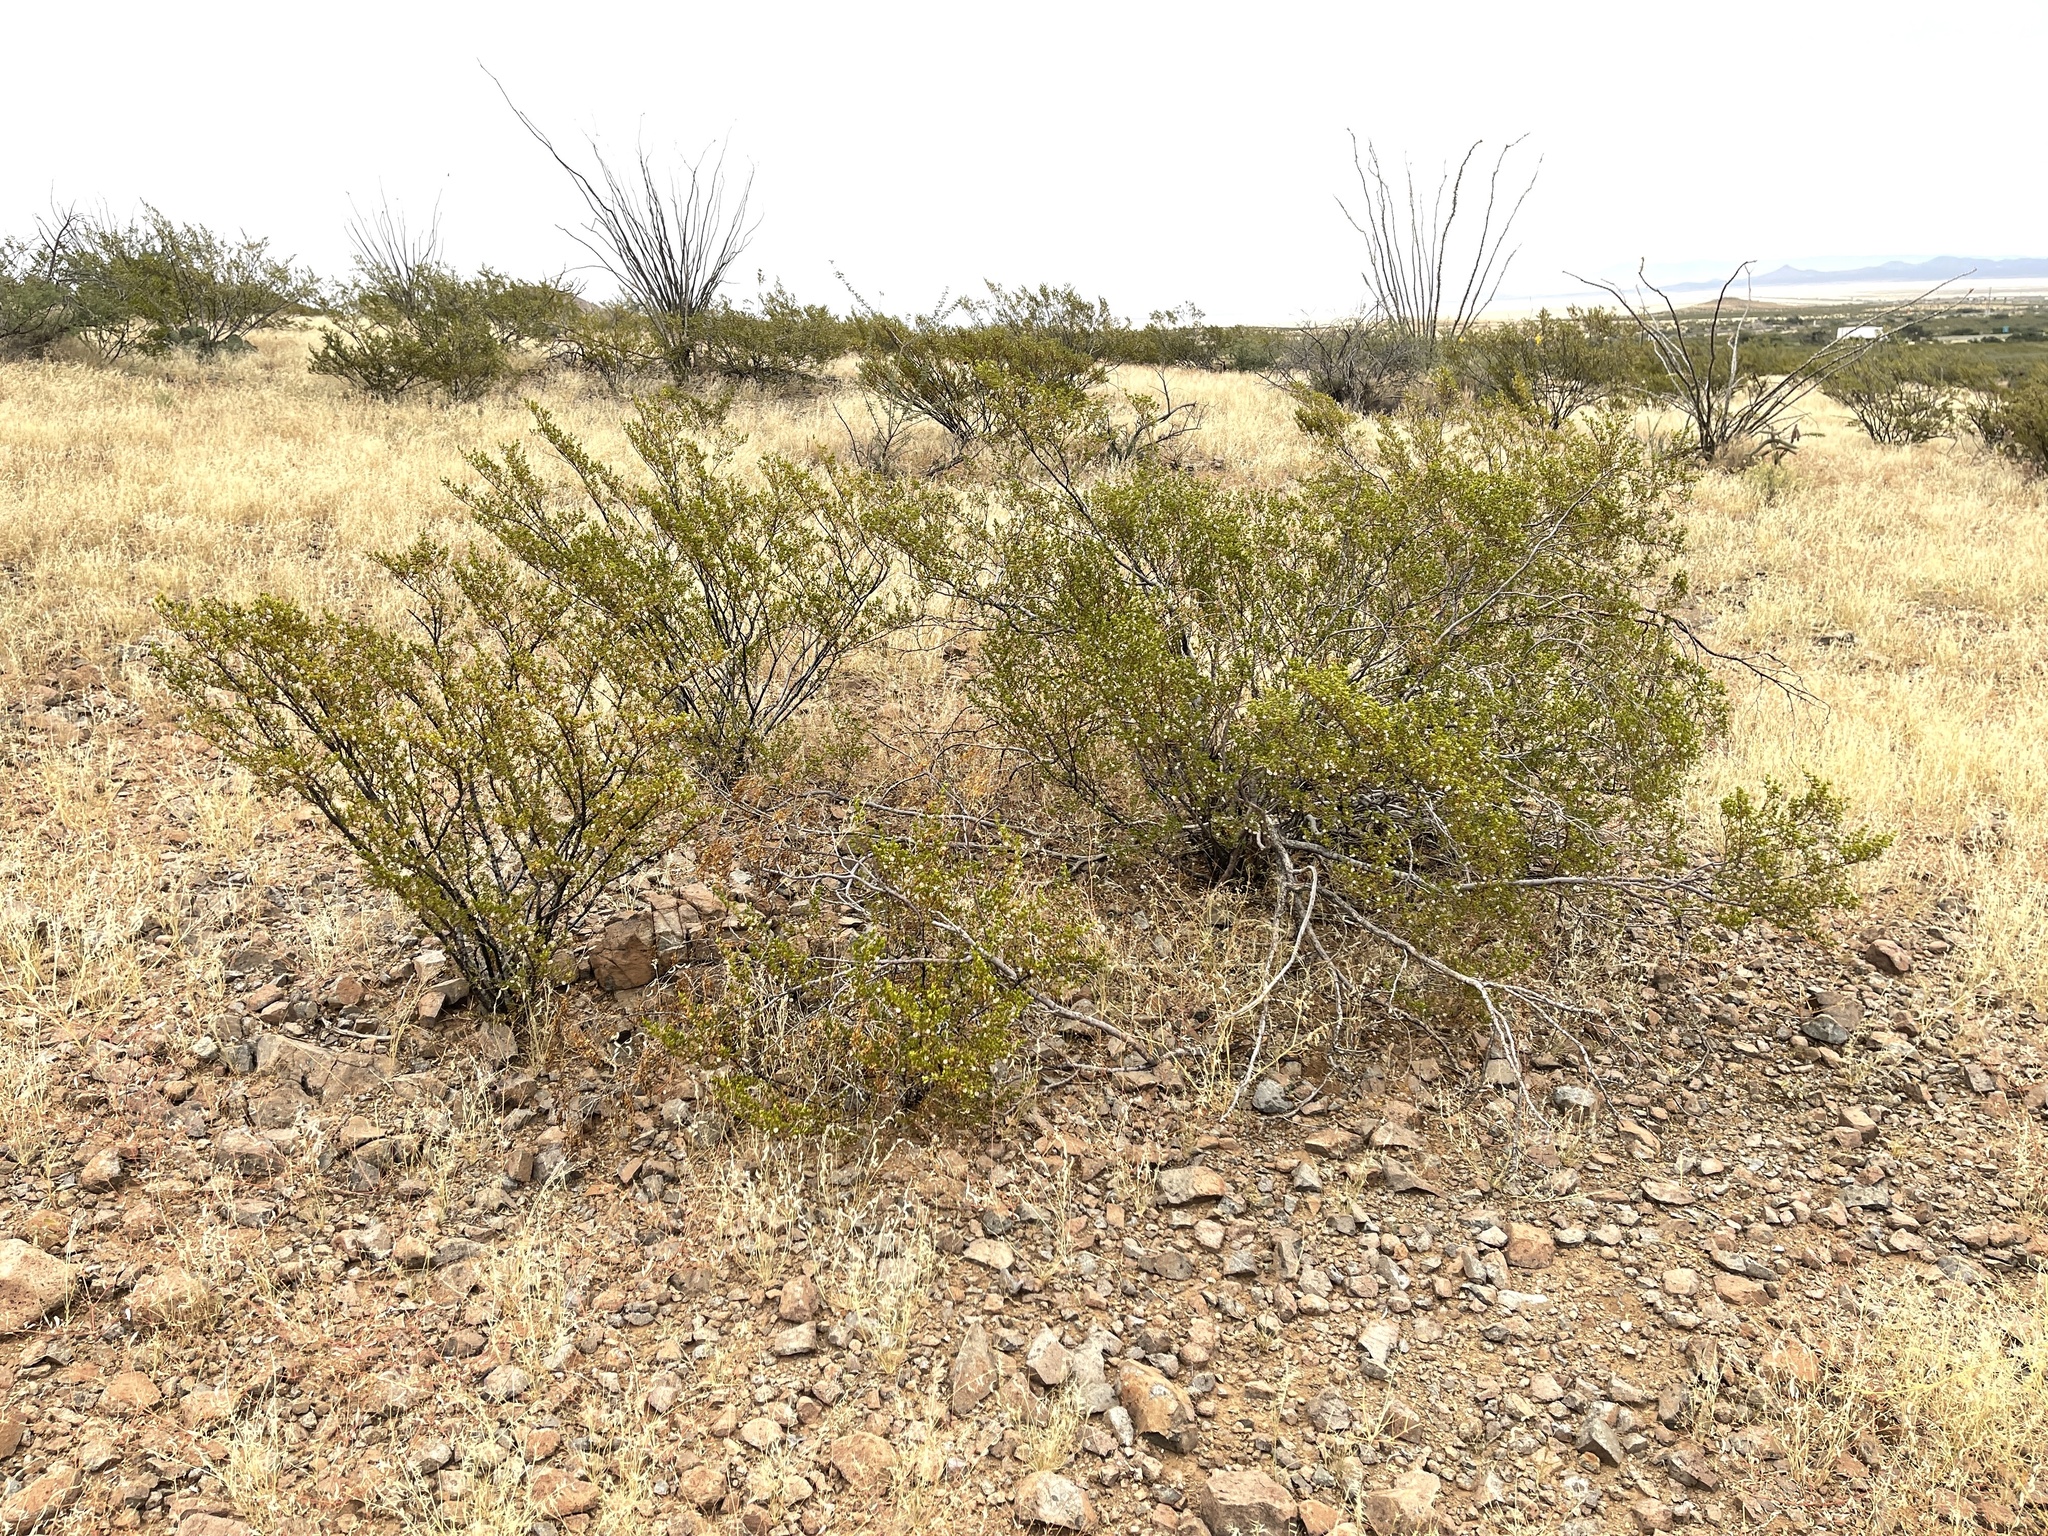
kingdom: Plantae
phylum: Tracheophyta
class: Magnoliopsida
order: Zygophyllales
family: Zygophyllaceae
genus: Larrea
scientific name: Larrea tridentata
